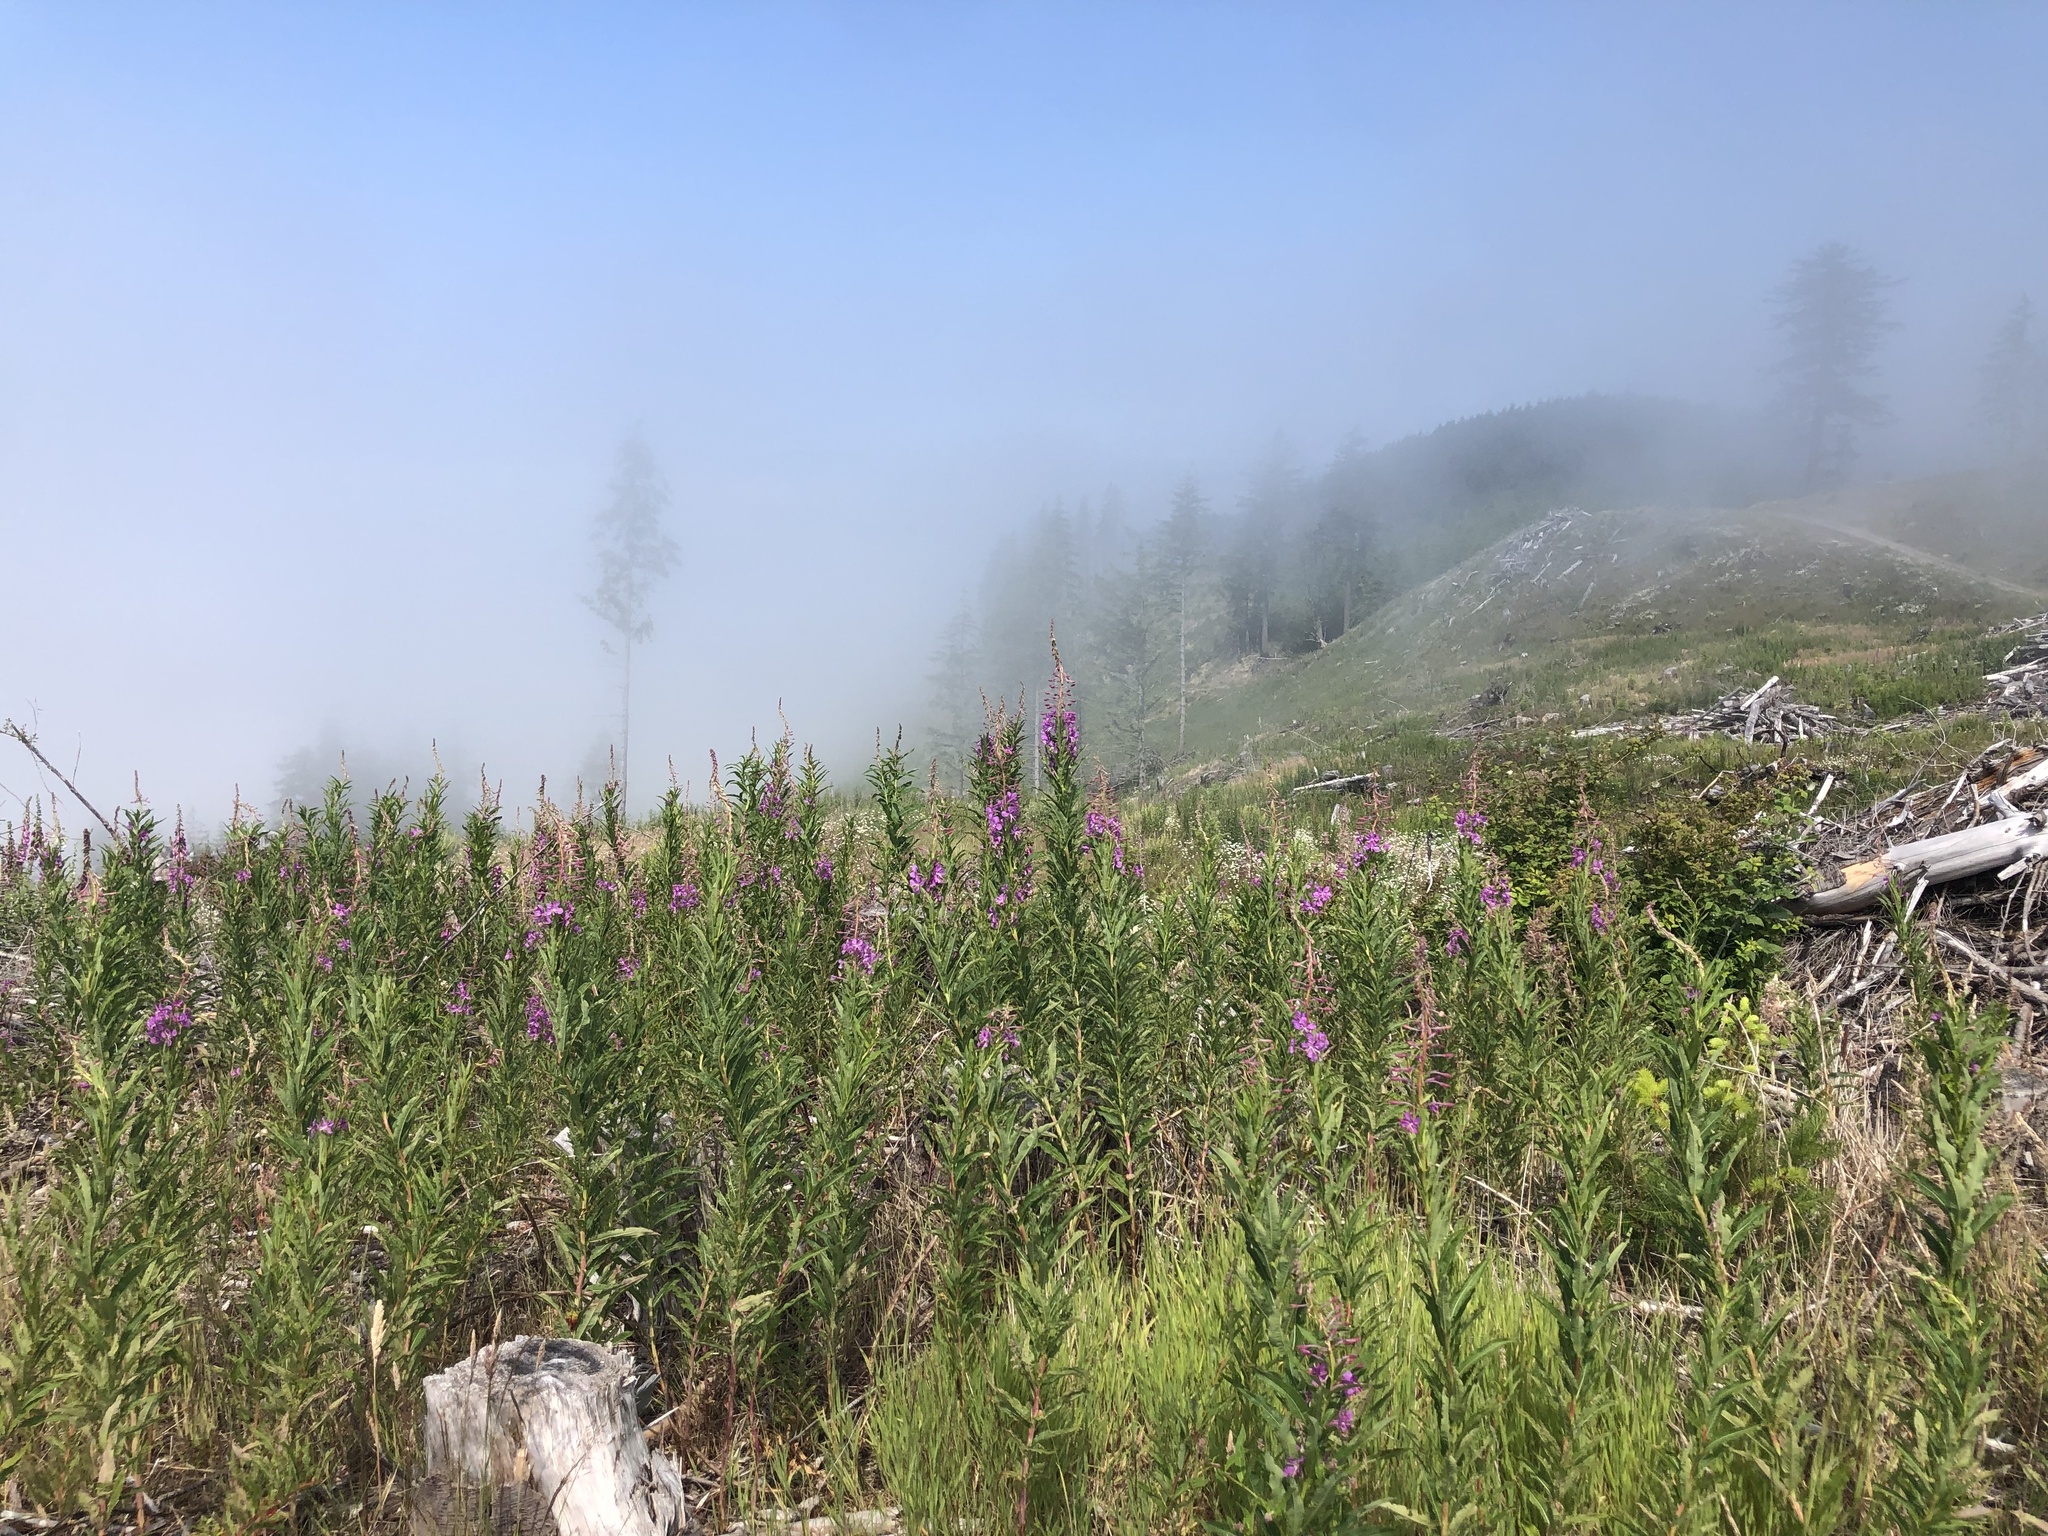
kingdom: Plantae
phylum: Tracheophyta
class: Magnoliopsida
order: Myrtales
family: Onagraceae
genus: Chamaenerion
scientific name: Chamaenerion angustifolium
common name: Fireweed
